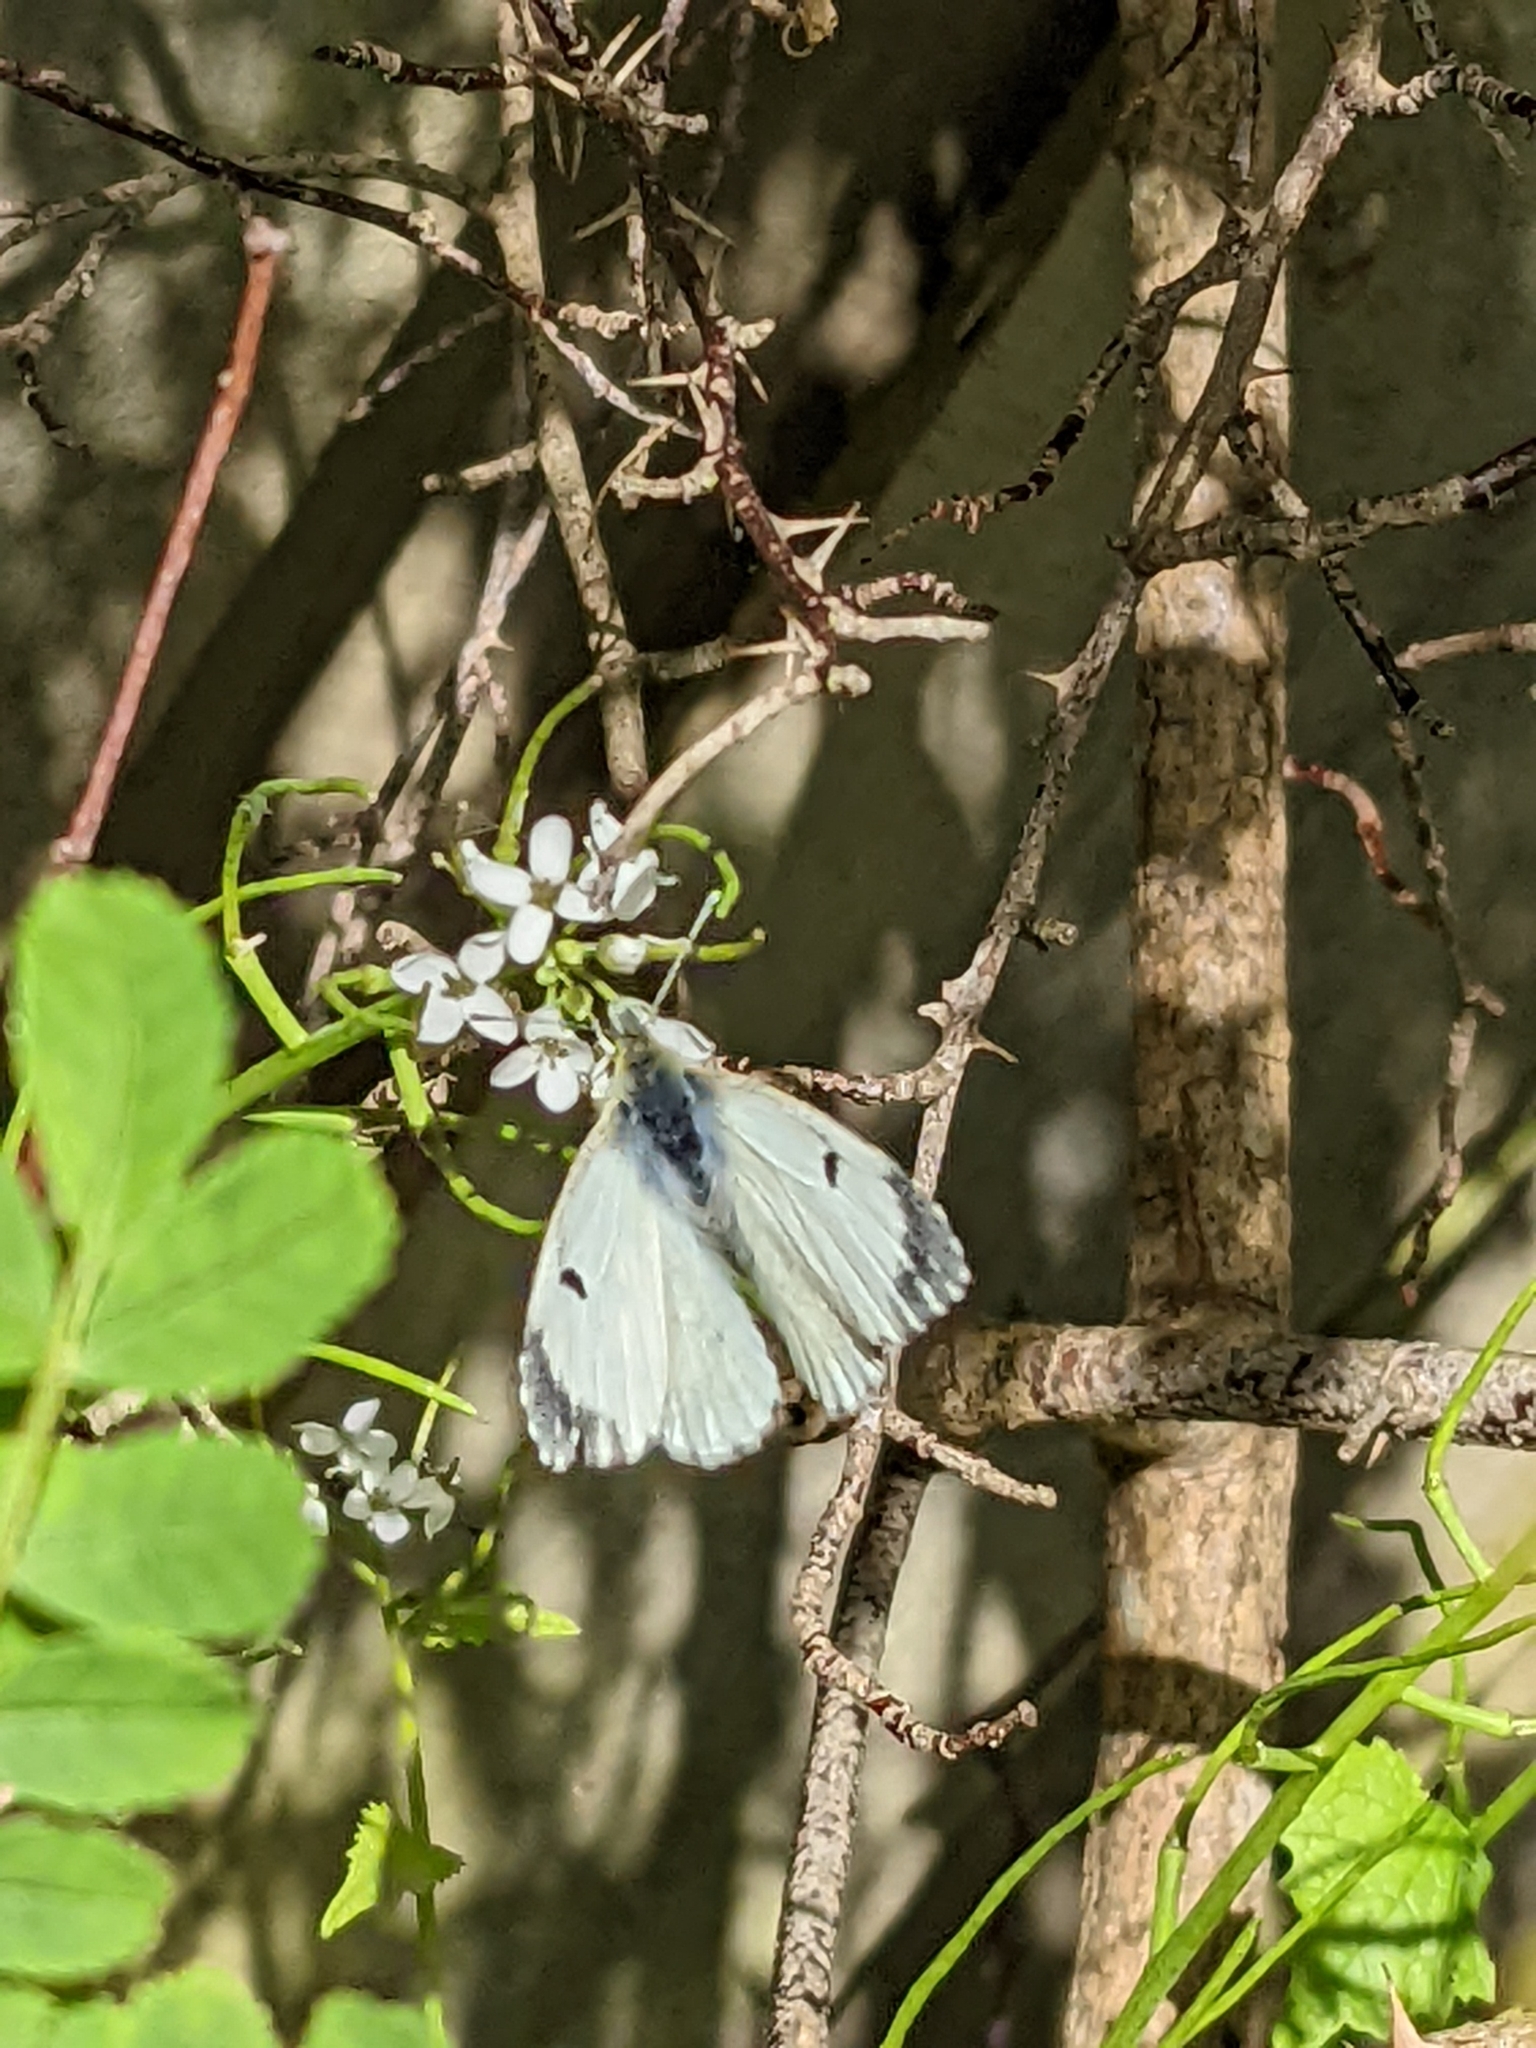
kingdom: Animalia
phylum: Arthropoda
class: Insecta
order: Lepidoptera
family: Pieridae
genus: Anthocharis
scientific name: Anthocharis cardamines
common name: Orange-tip
